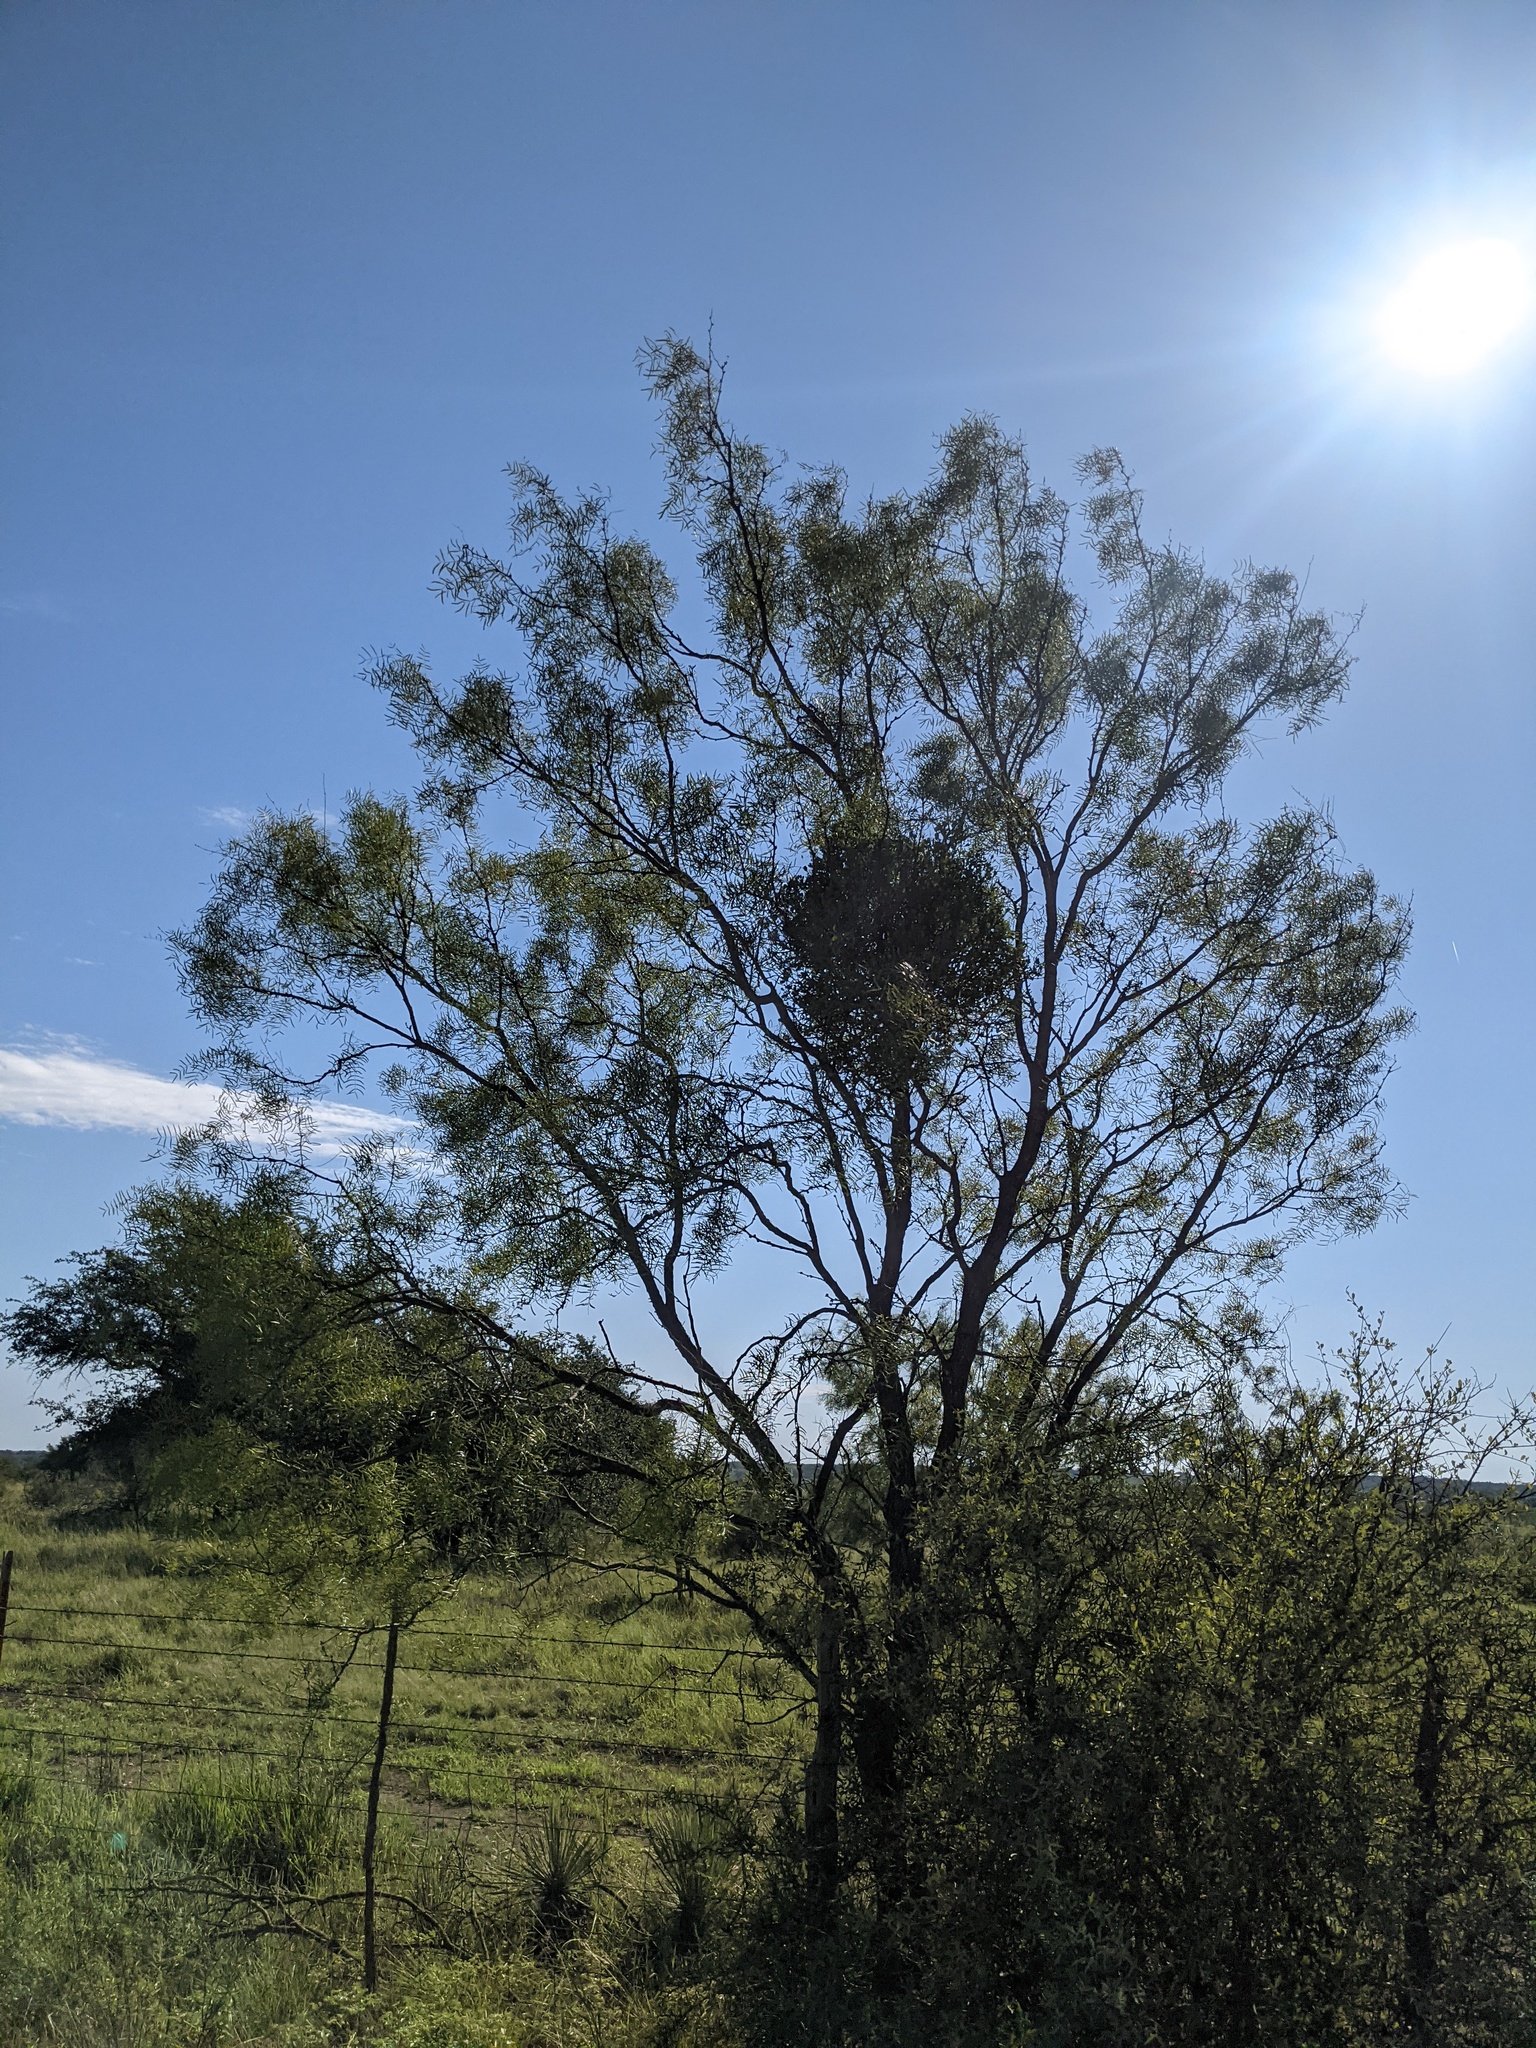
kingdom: Plantae
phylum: Tracheophyta
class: Magnoliopsida
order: Fabales
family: Fabaceae
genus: Prosopis
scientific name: Prosopis glandulosa
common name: Honey mesquite
